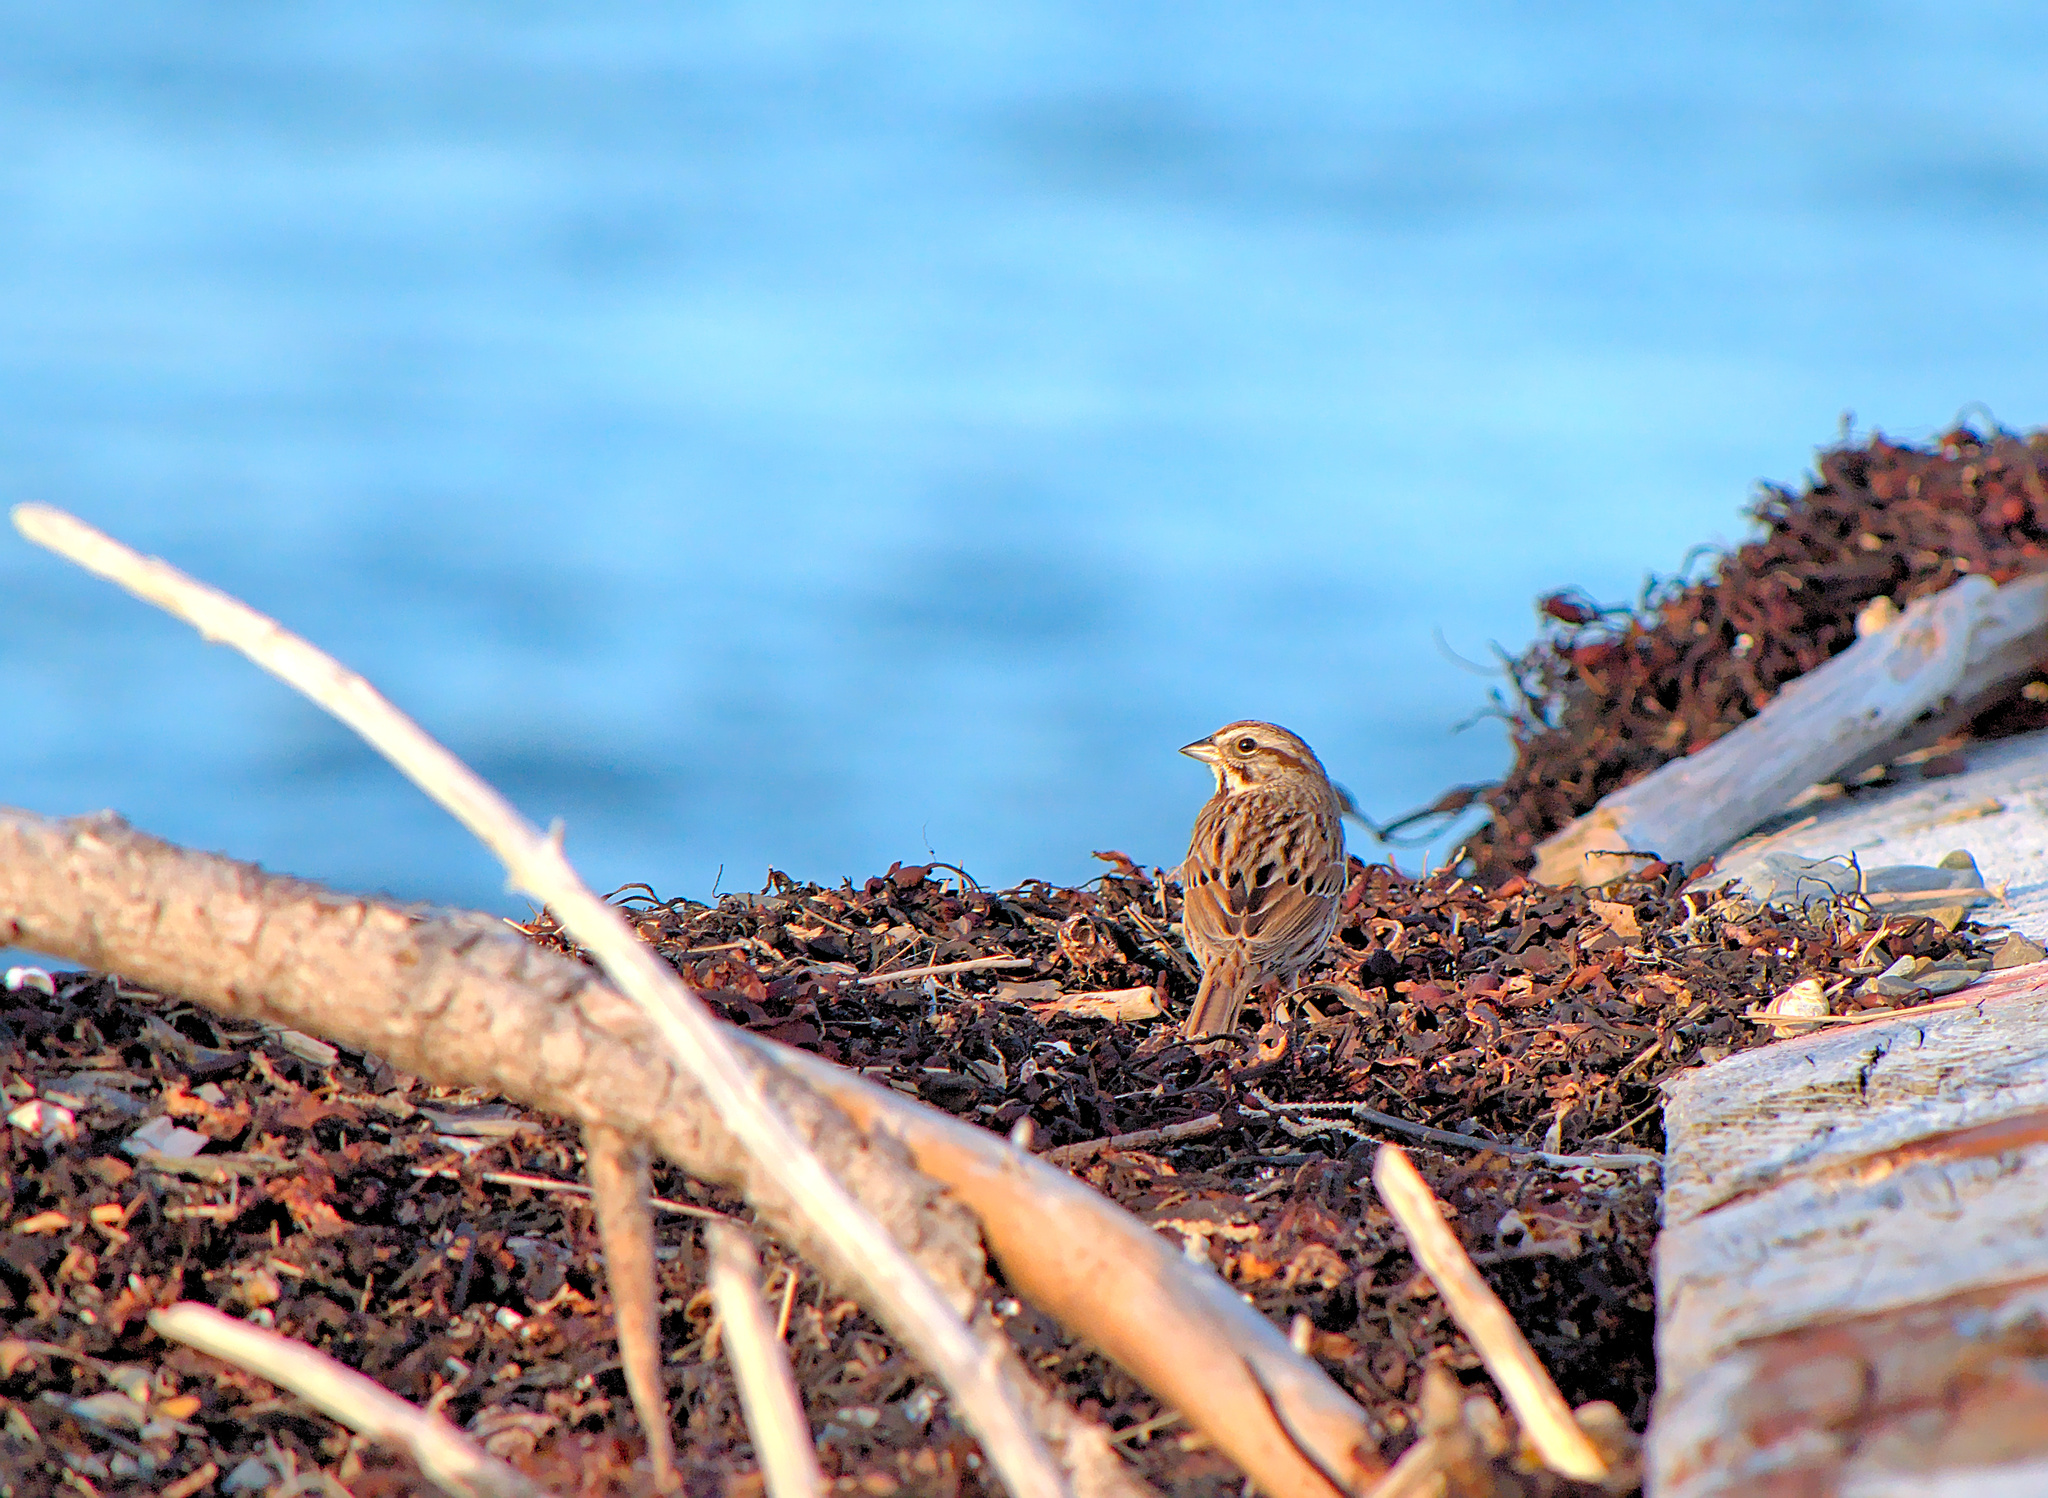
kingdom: Animalia
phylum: Chordata
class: Aves
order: Passeriformes
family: Passerellidae
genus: Melospiza
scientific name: Melospiza melodia
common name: Song sparrow
